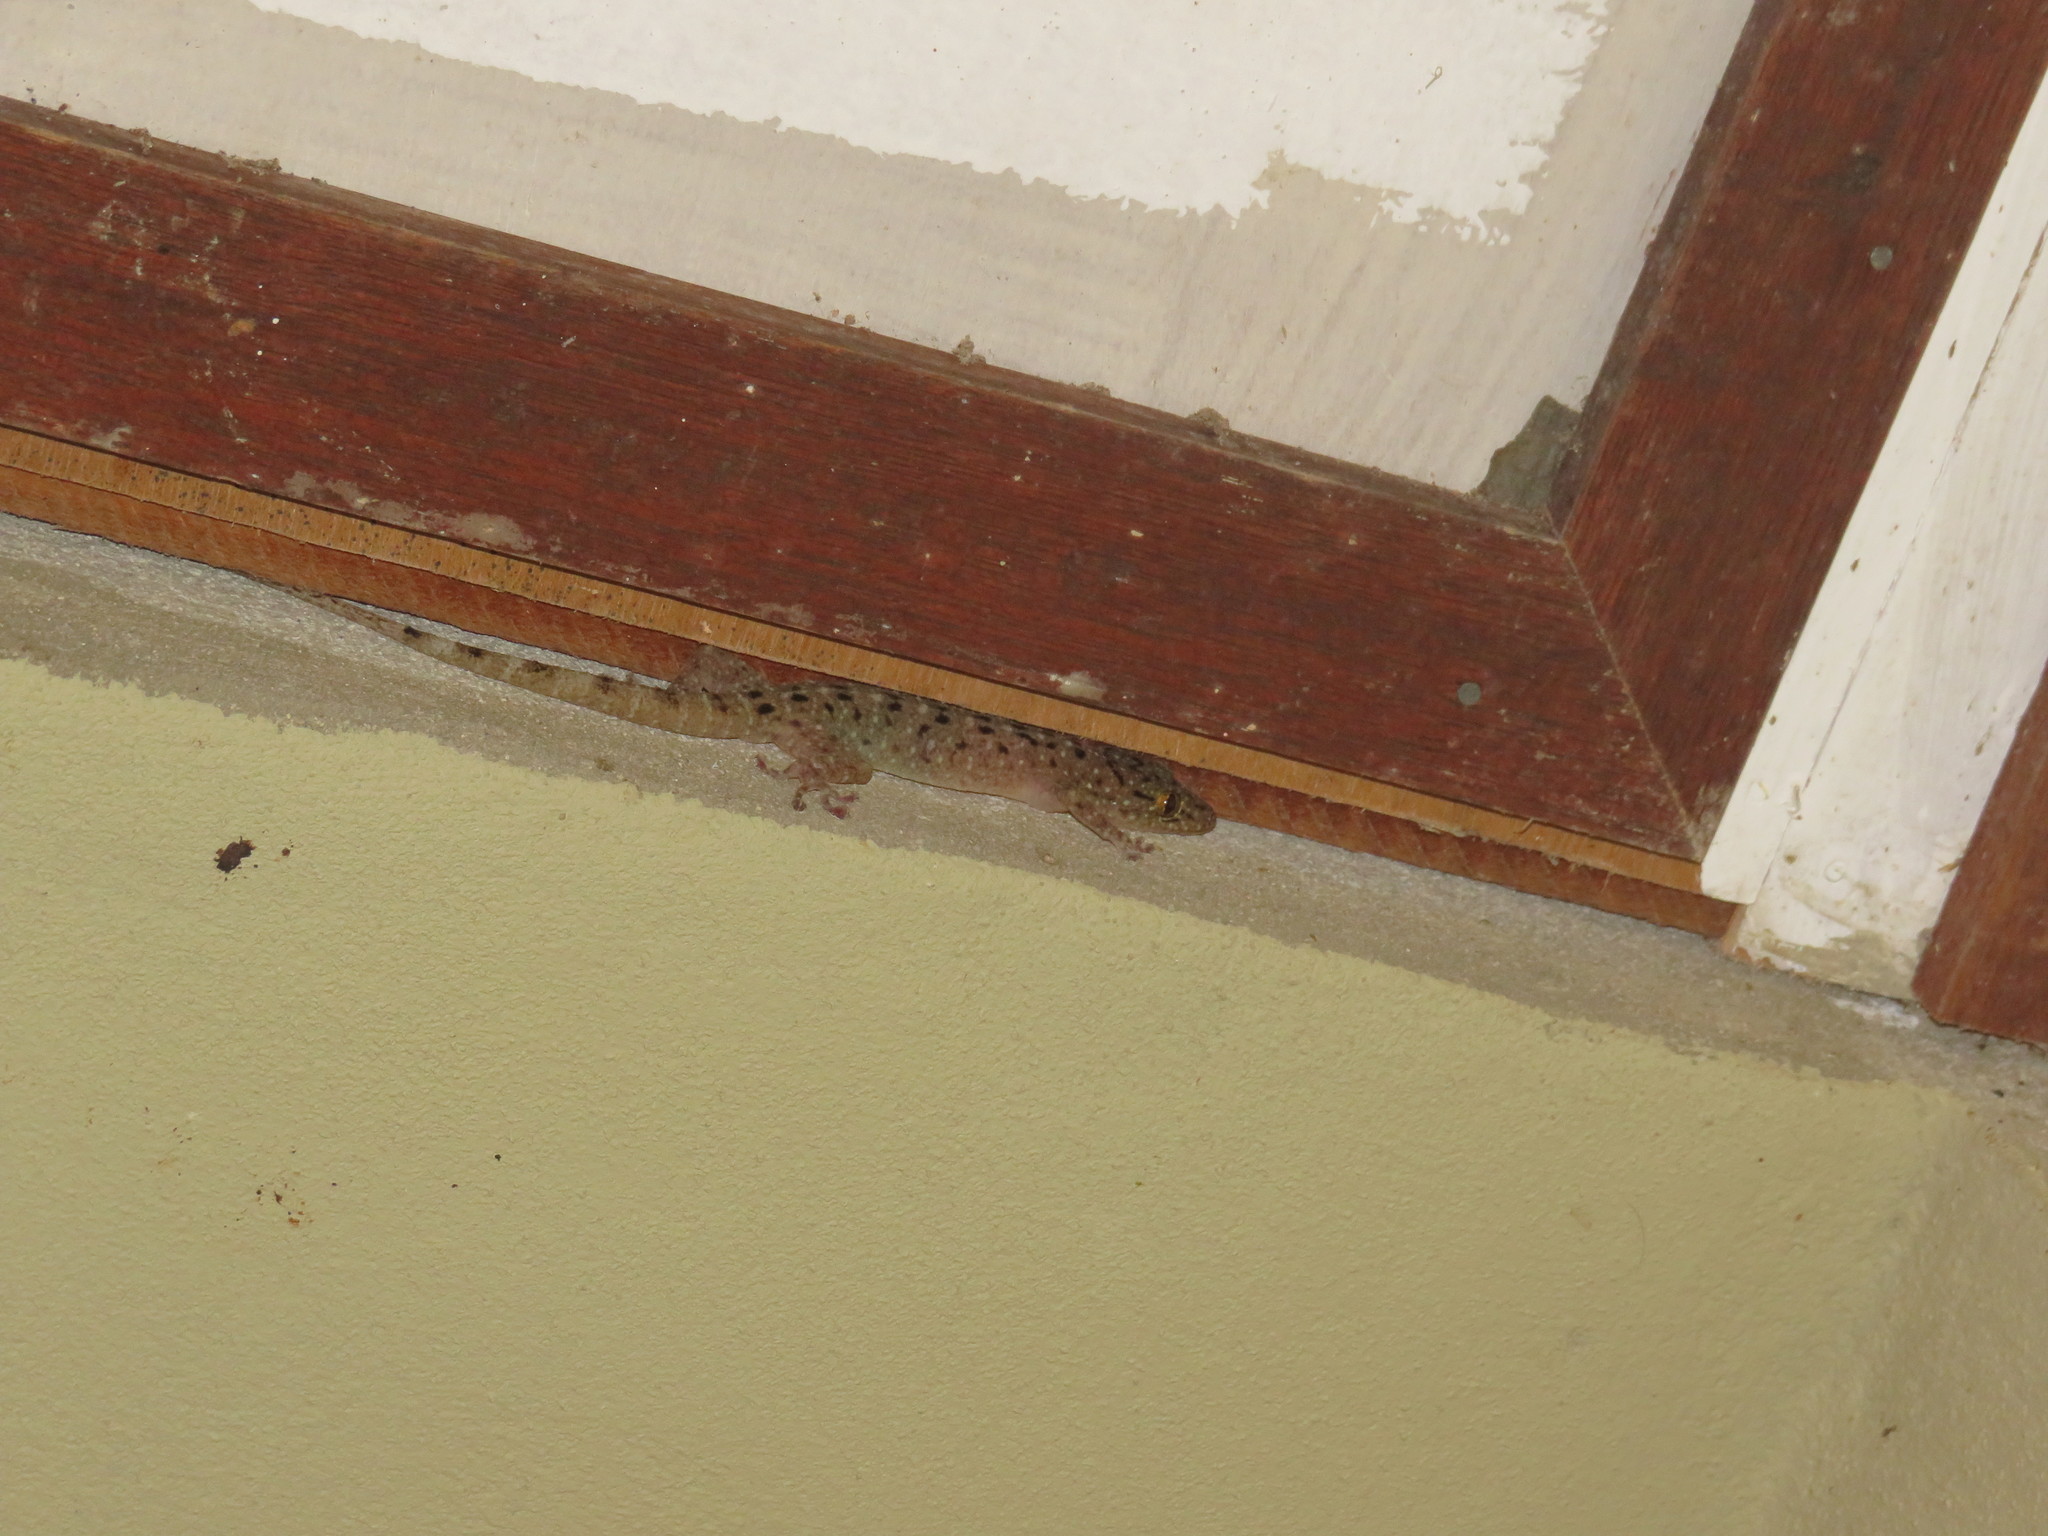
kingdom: Animalia
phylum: Chordata
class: Squamata
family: Gekkonidae
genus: Gekko
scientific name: Gekko monarchus
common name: Spotted house gecko
